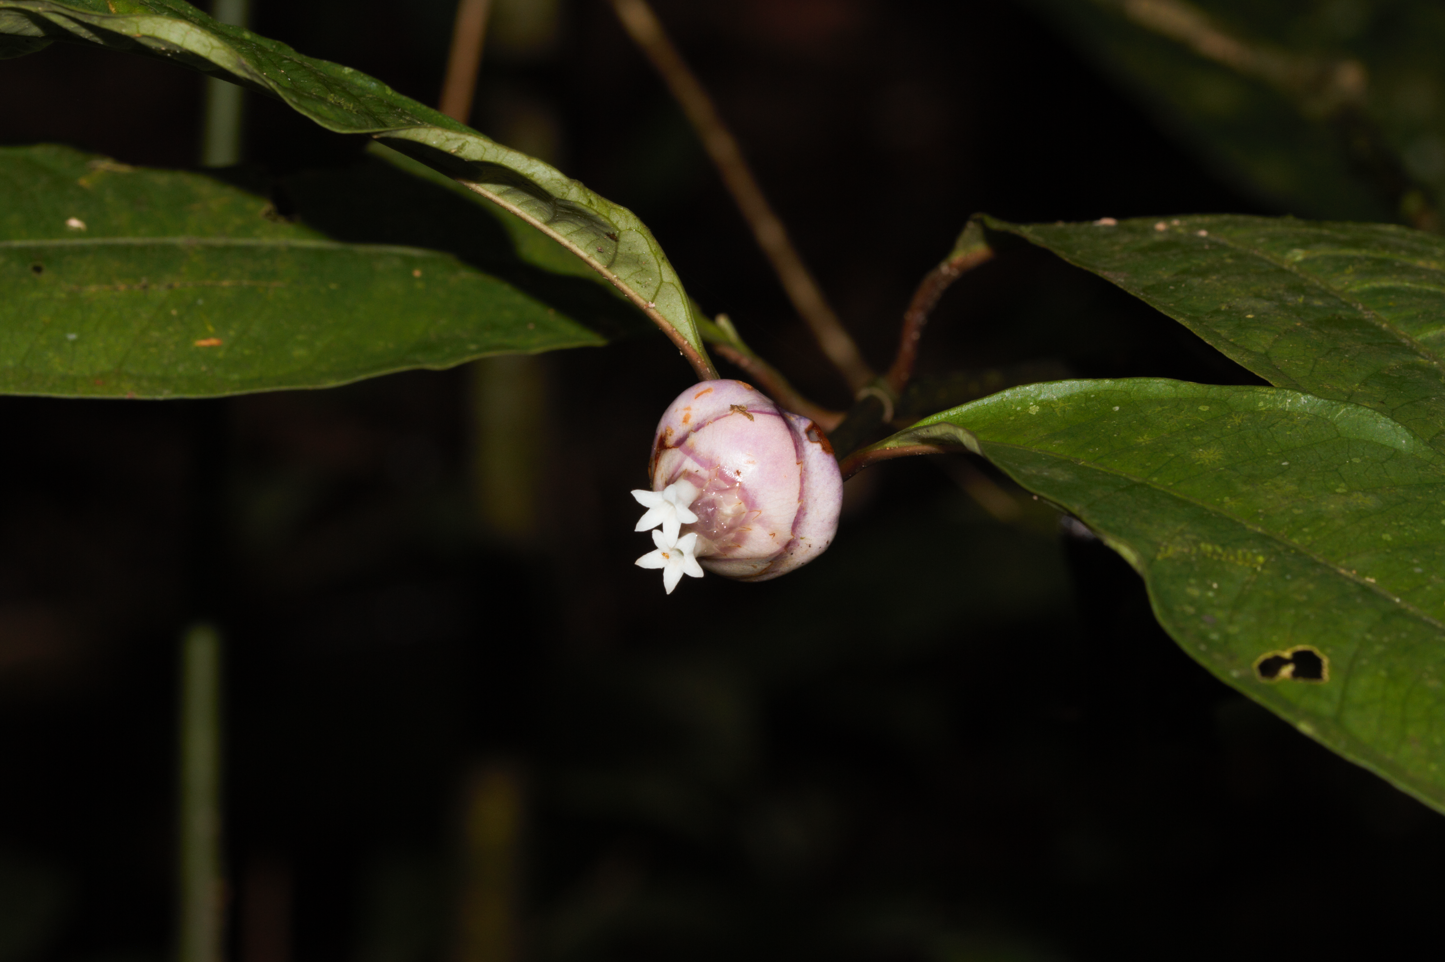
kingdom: Plantae
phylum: Tracheophyta
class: Magnoliopsida
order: Gentianales
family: Rubiaceae
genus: Palicourea
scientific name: Palicourea apoda
